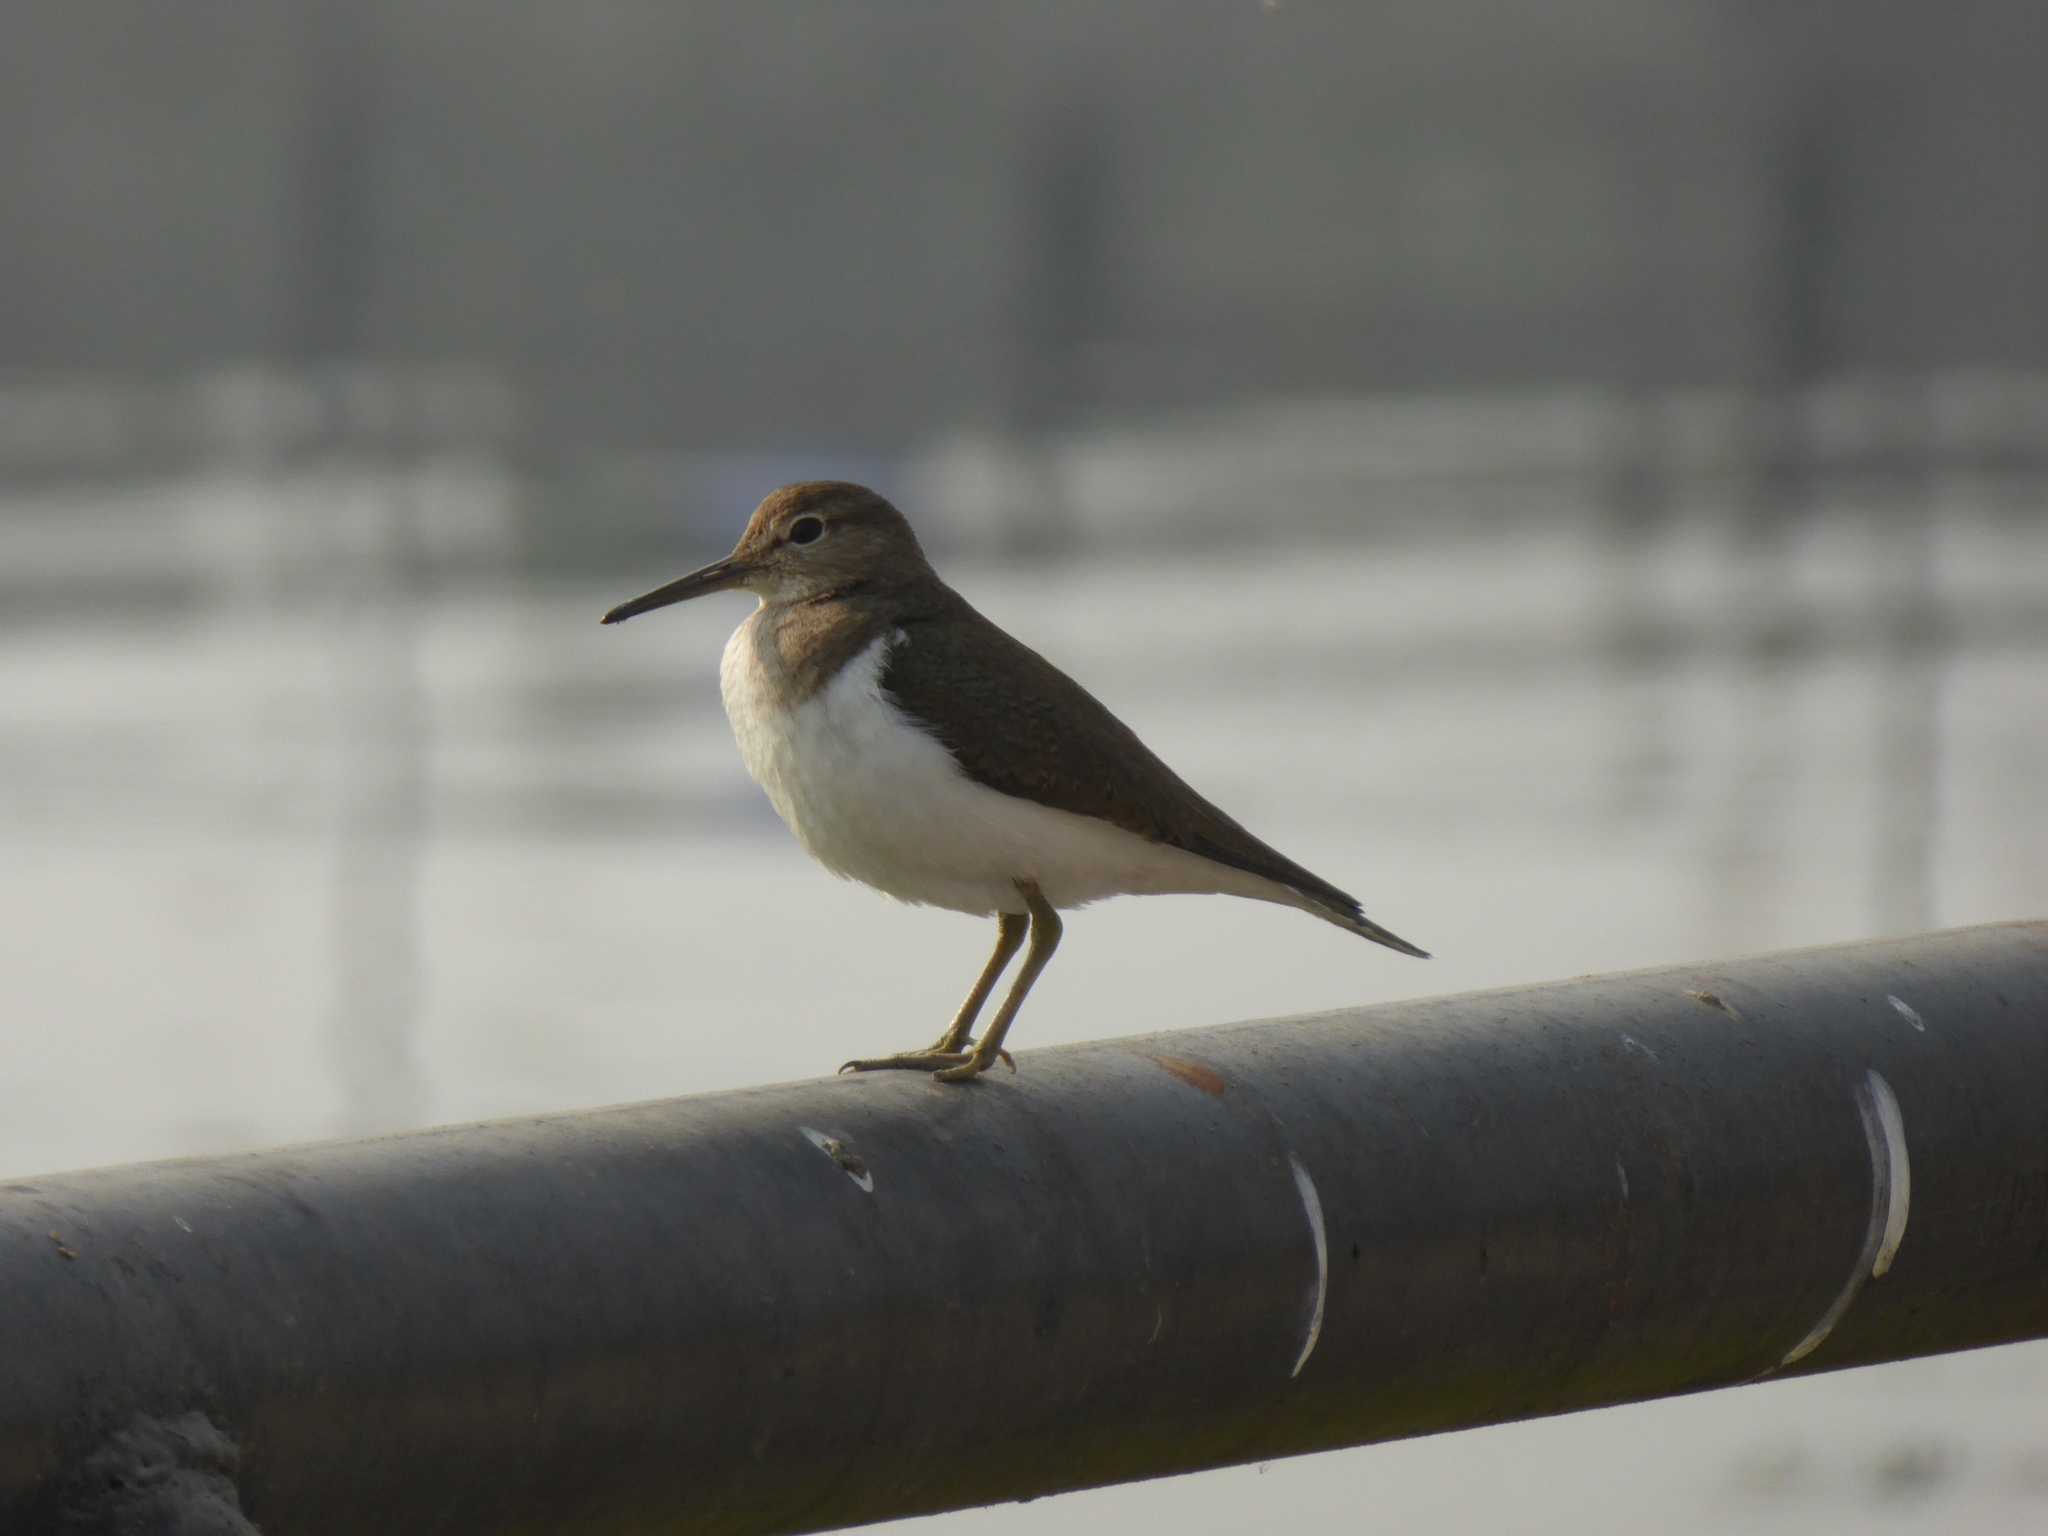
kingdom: Animalia
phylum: Chordata
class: Aves
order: Charadriiformes
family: Scolopacidae
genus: Actitis
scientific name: Actitis hypoleucos
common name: Common sandpiper
